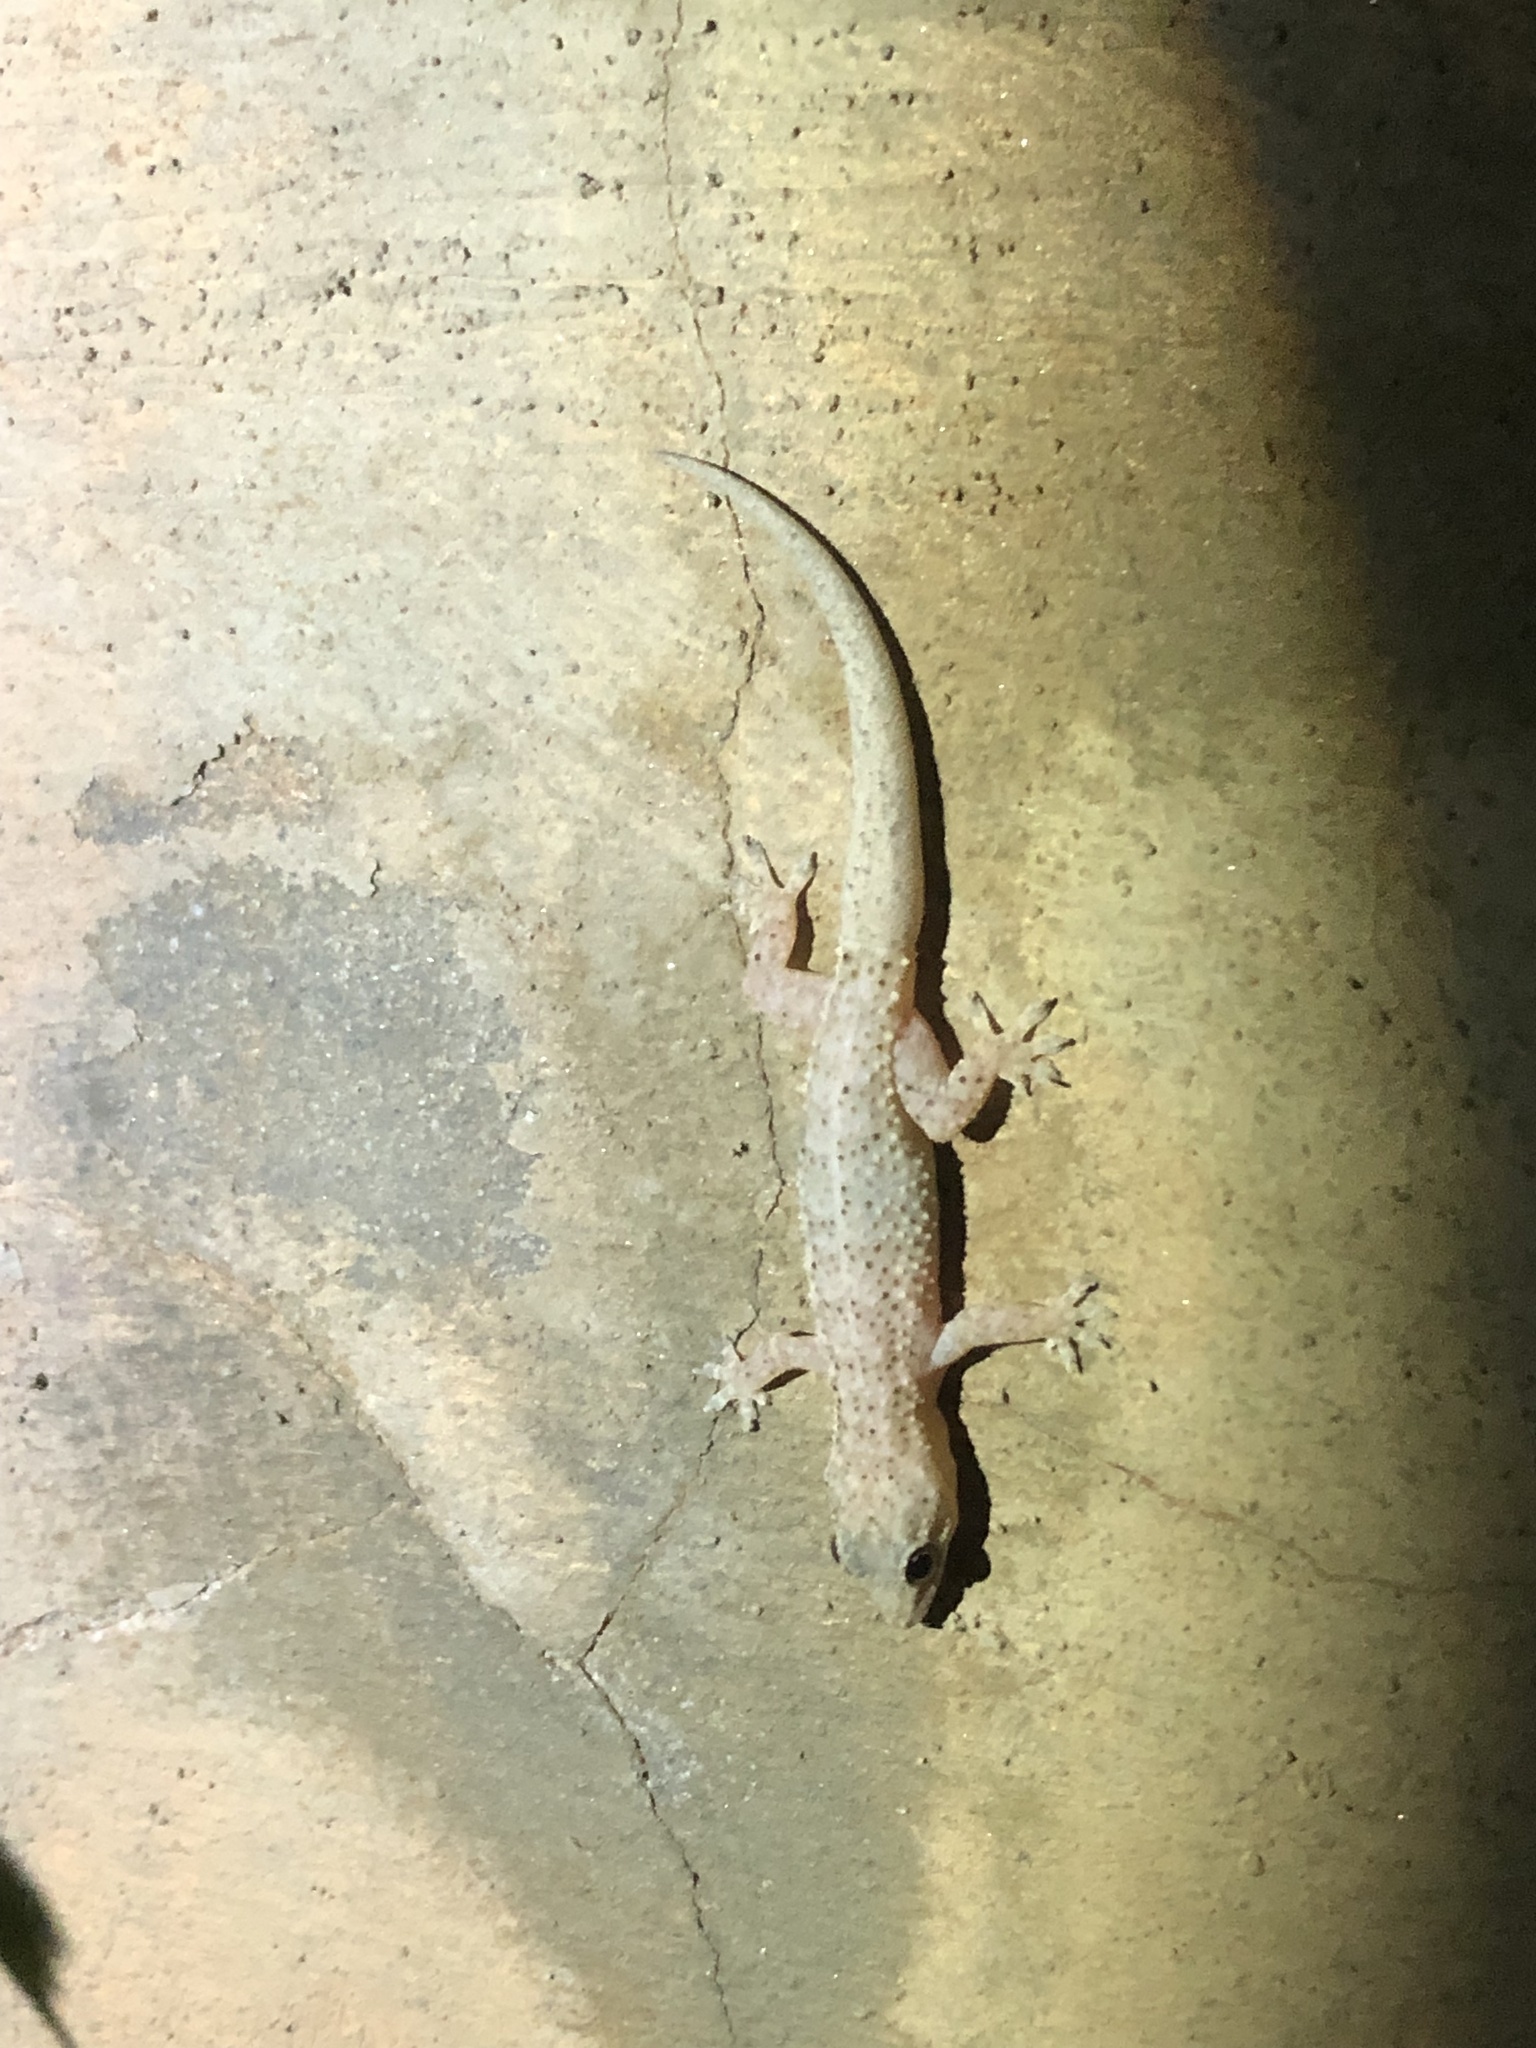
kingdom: Animalia
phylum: Chordata
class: Squamata
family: Gekkonidae
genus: Hemidactylus
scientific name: Hemidactylus agrius
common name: Country leaf-toed gecko
